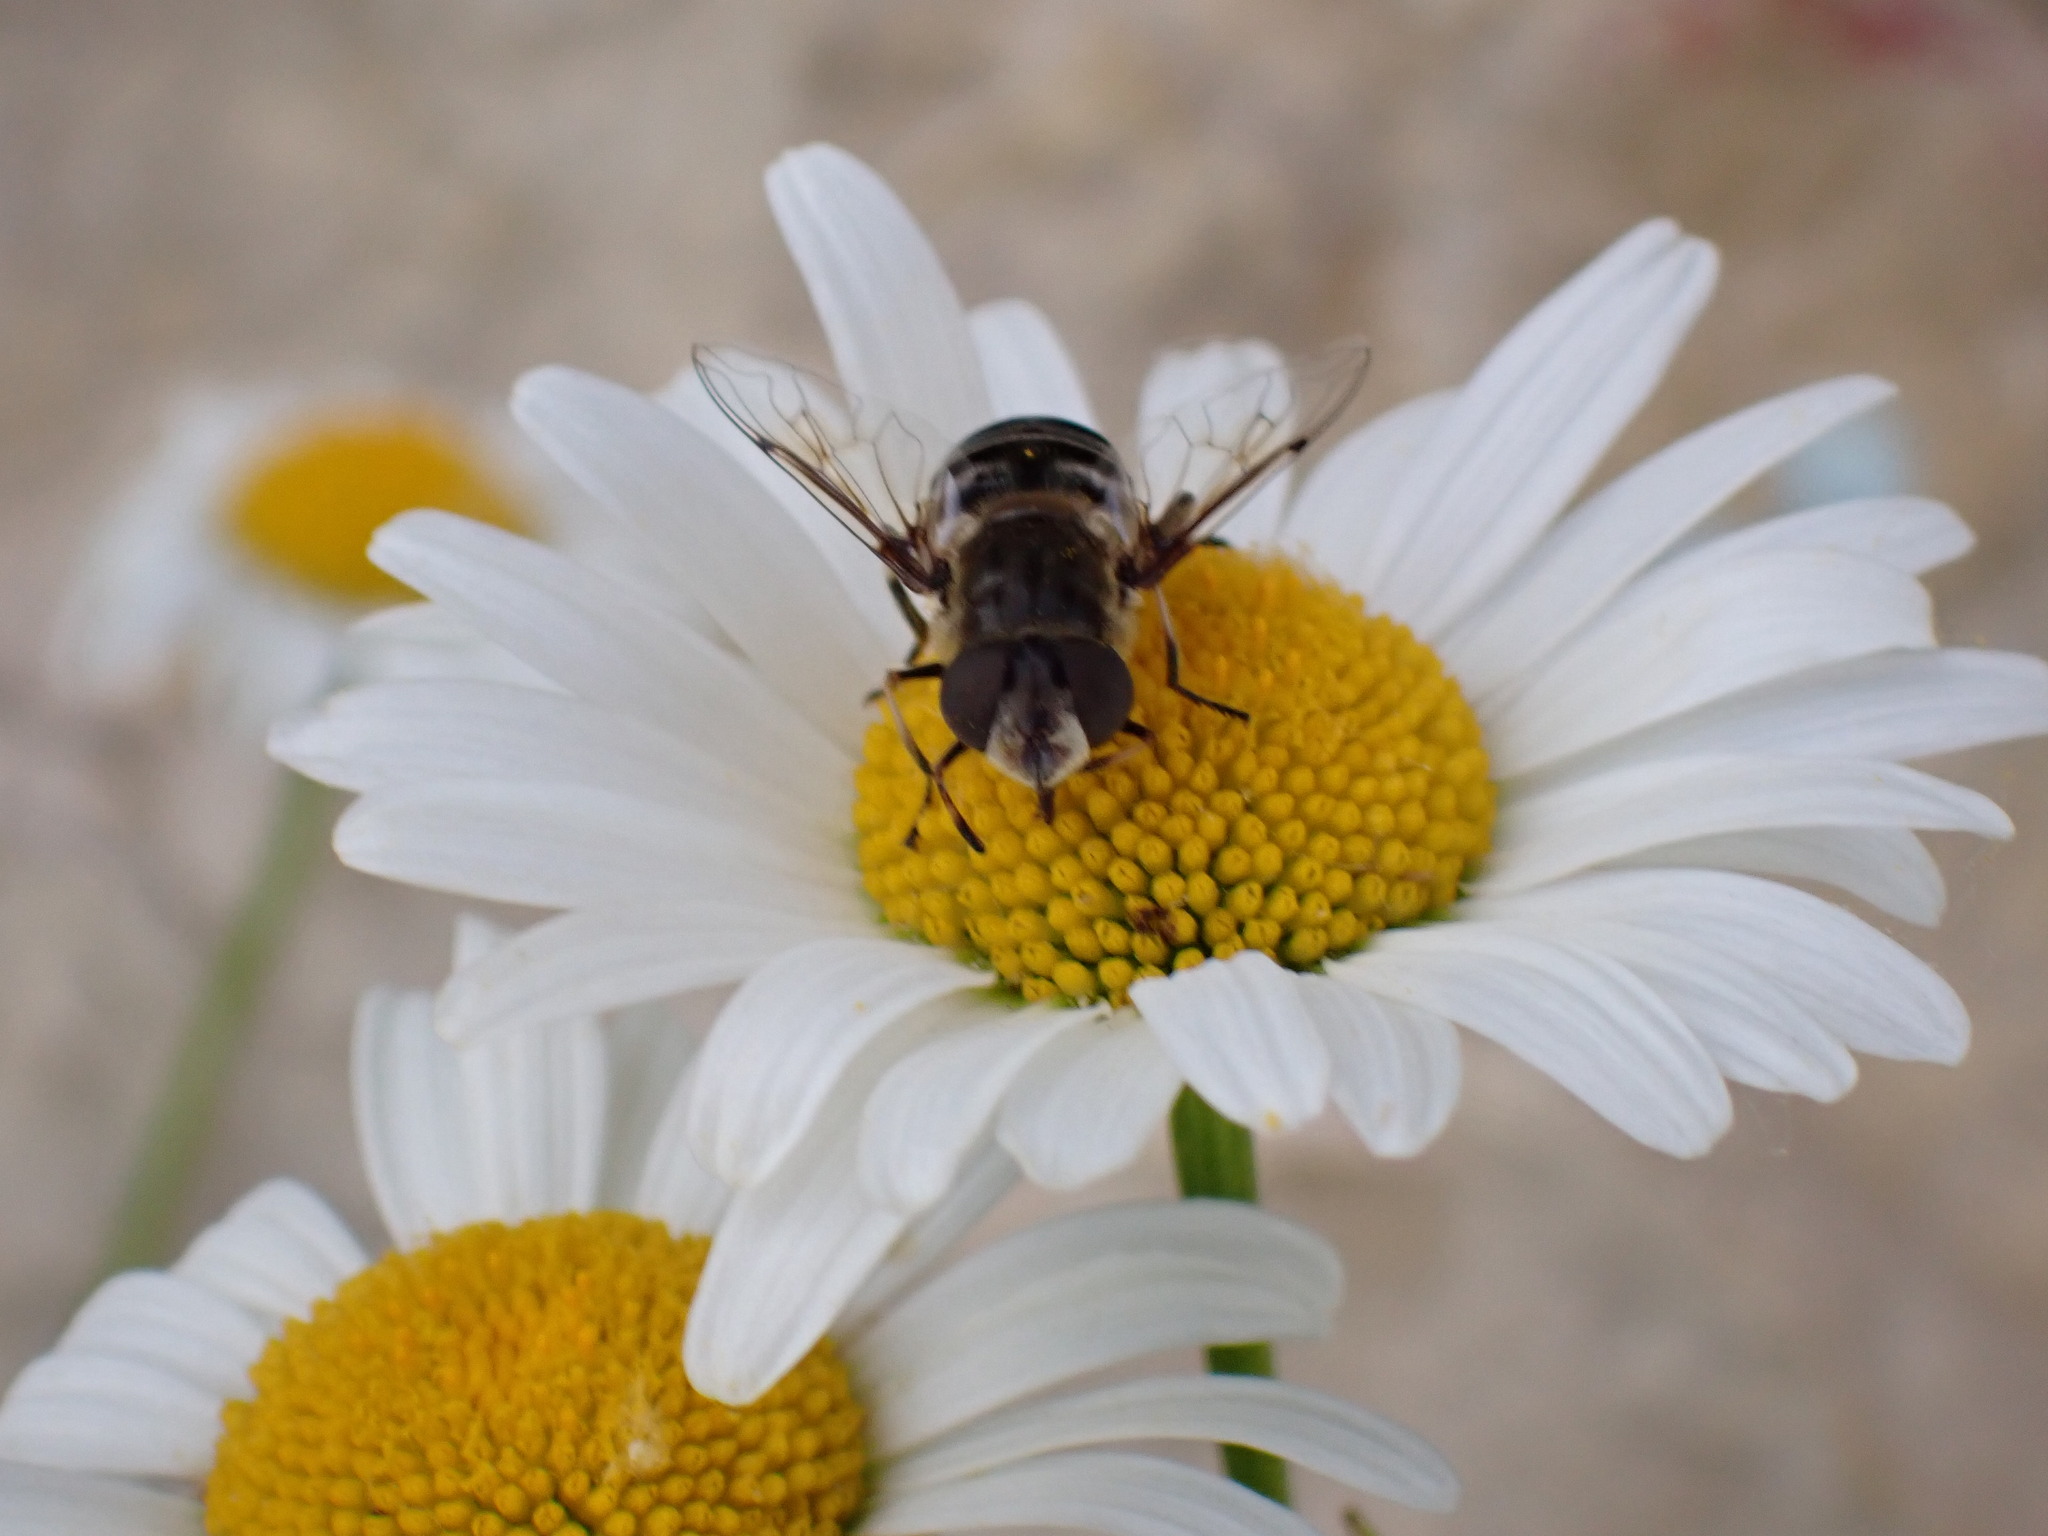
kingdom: Animalia
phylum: Arthropoda
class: Insecta
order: Diptera
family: Syrphidae
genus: Eristalis
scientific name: Eristalis dimidiata
